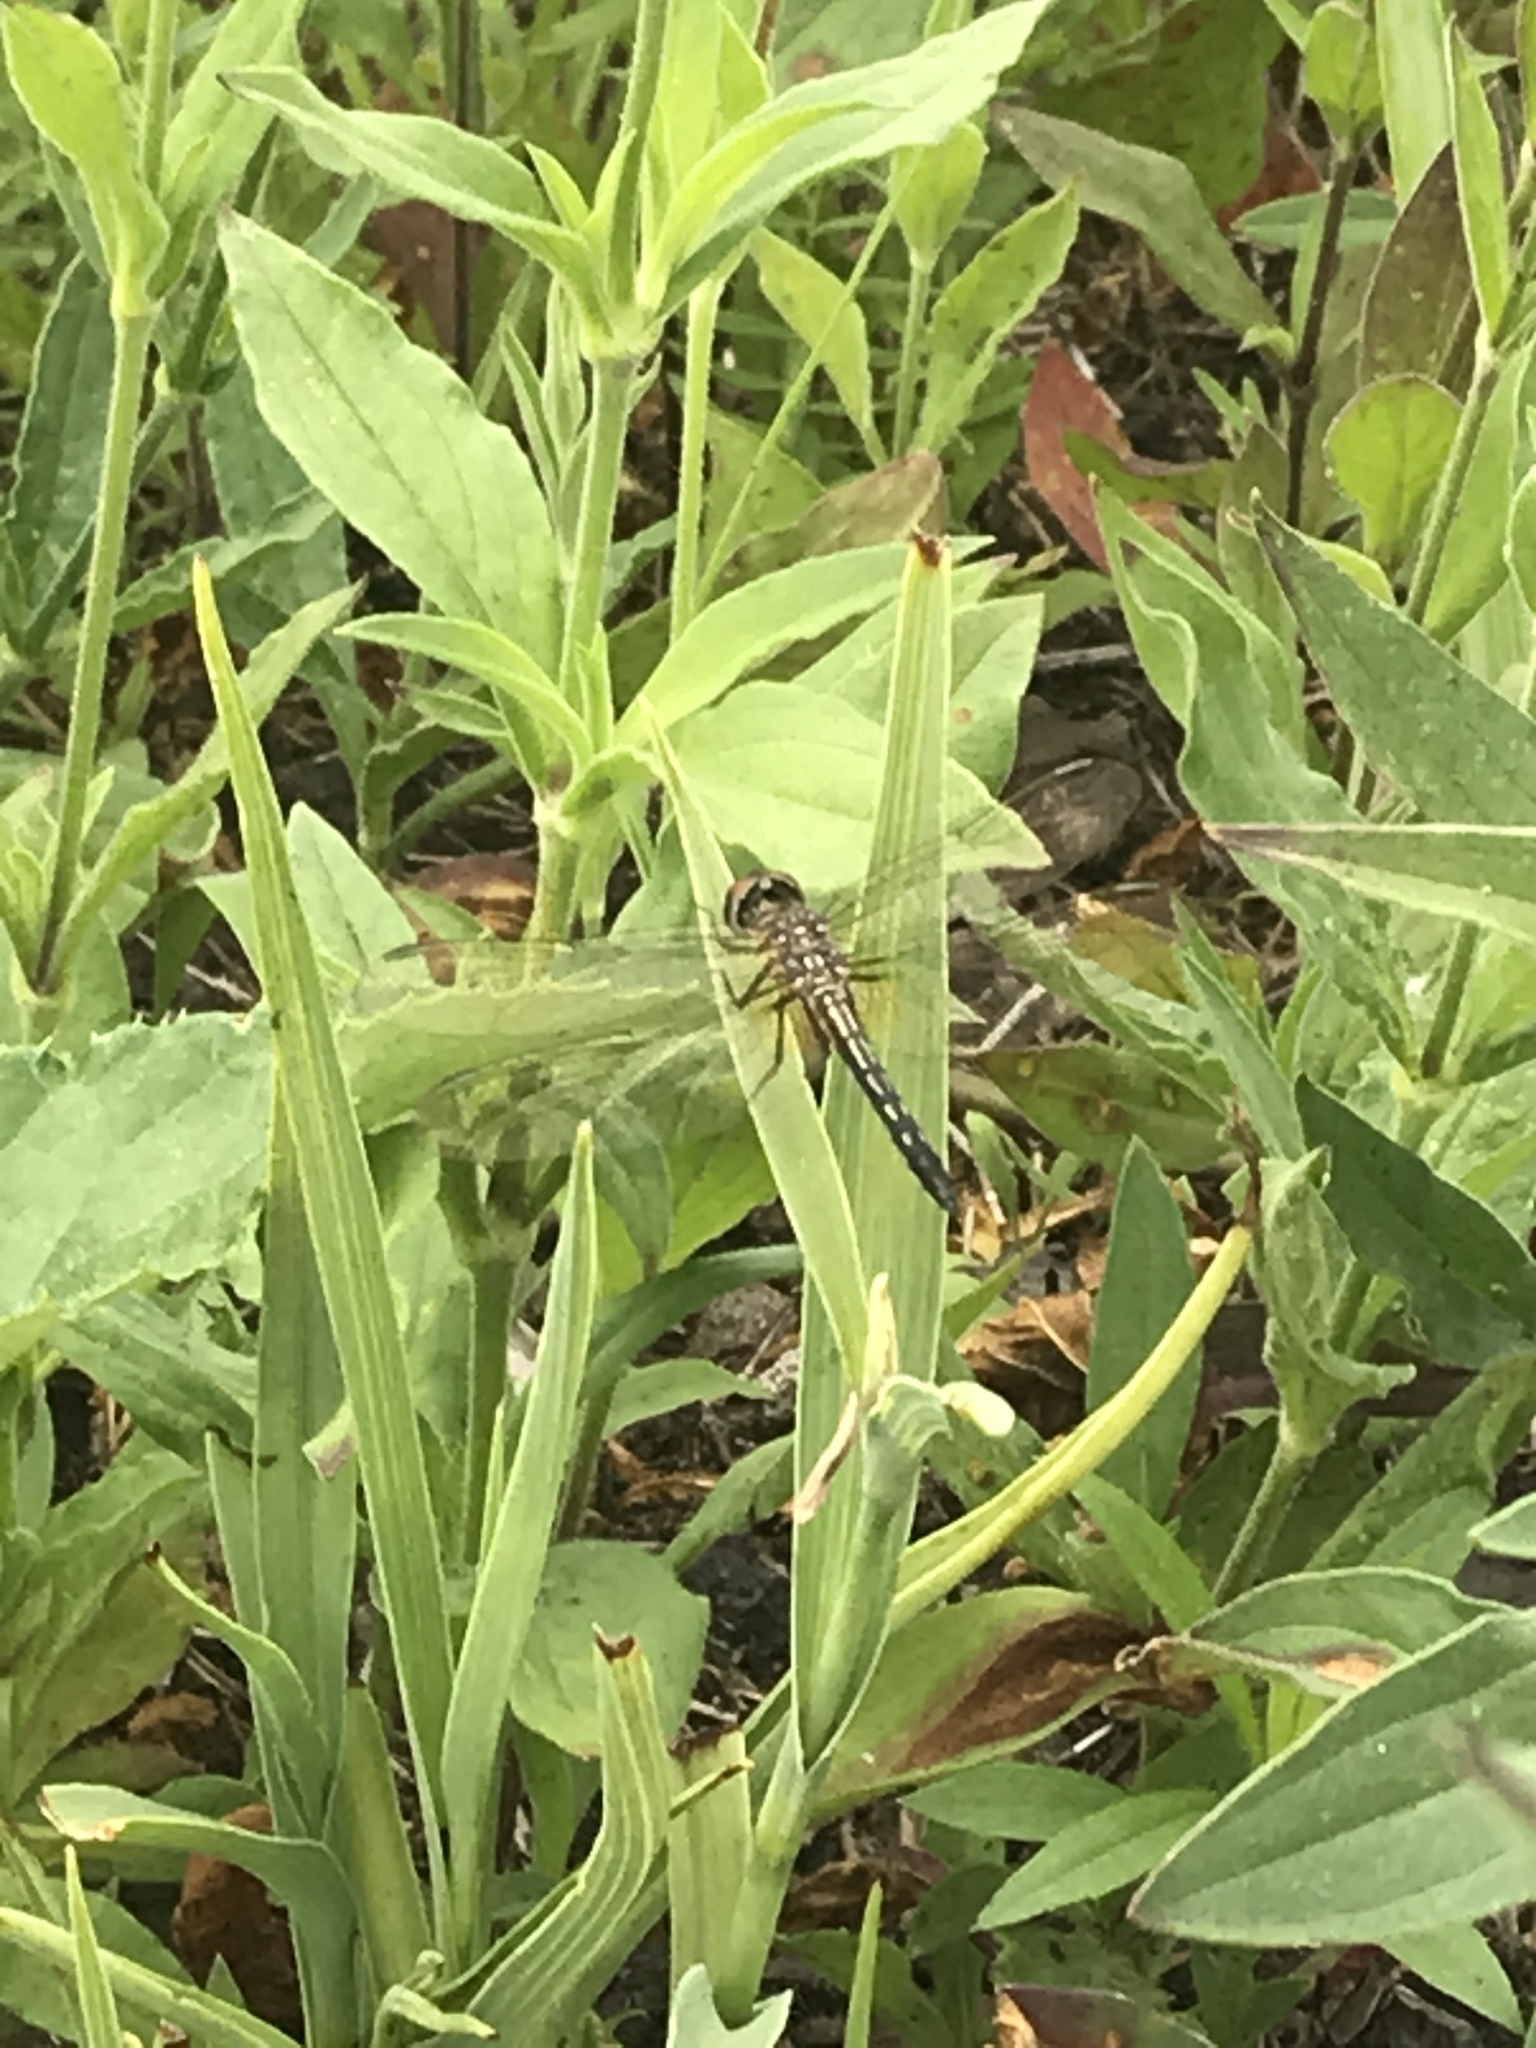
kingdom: Animalia
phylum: Arthropoda
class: Insecta
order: Odonata
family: Libellulidae
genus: Pachydiplax
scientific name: Pachydiplax longipennis
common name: Blue dasher
